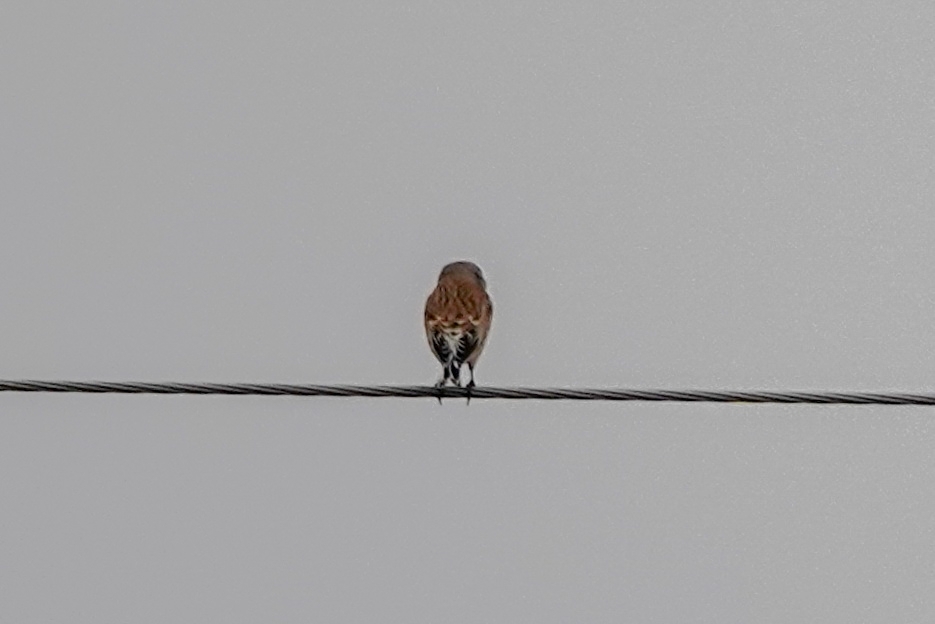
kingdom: Animalia
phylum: Chordata
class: Aves
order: Passeriformes
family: Fringillidae
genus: Linaria
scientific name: Linaria cannabina
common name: Common linnet
